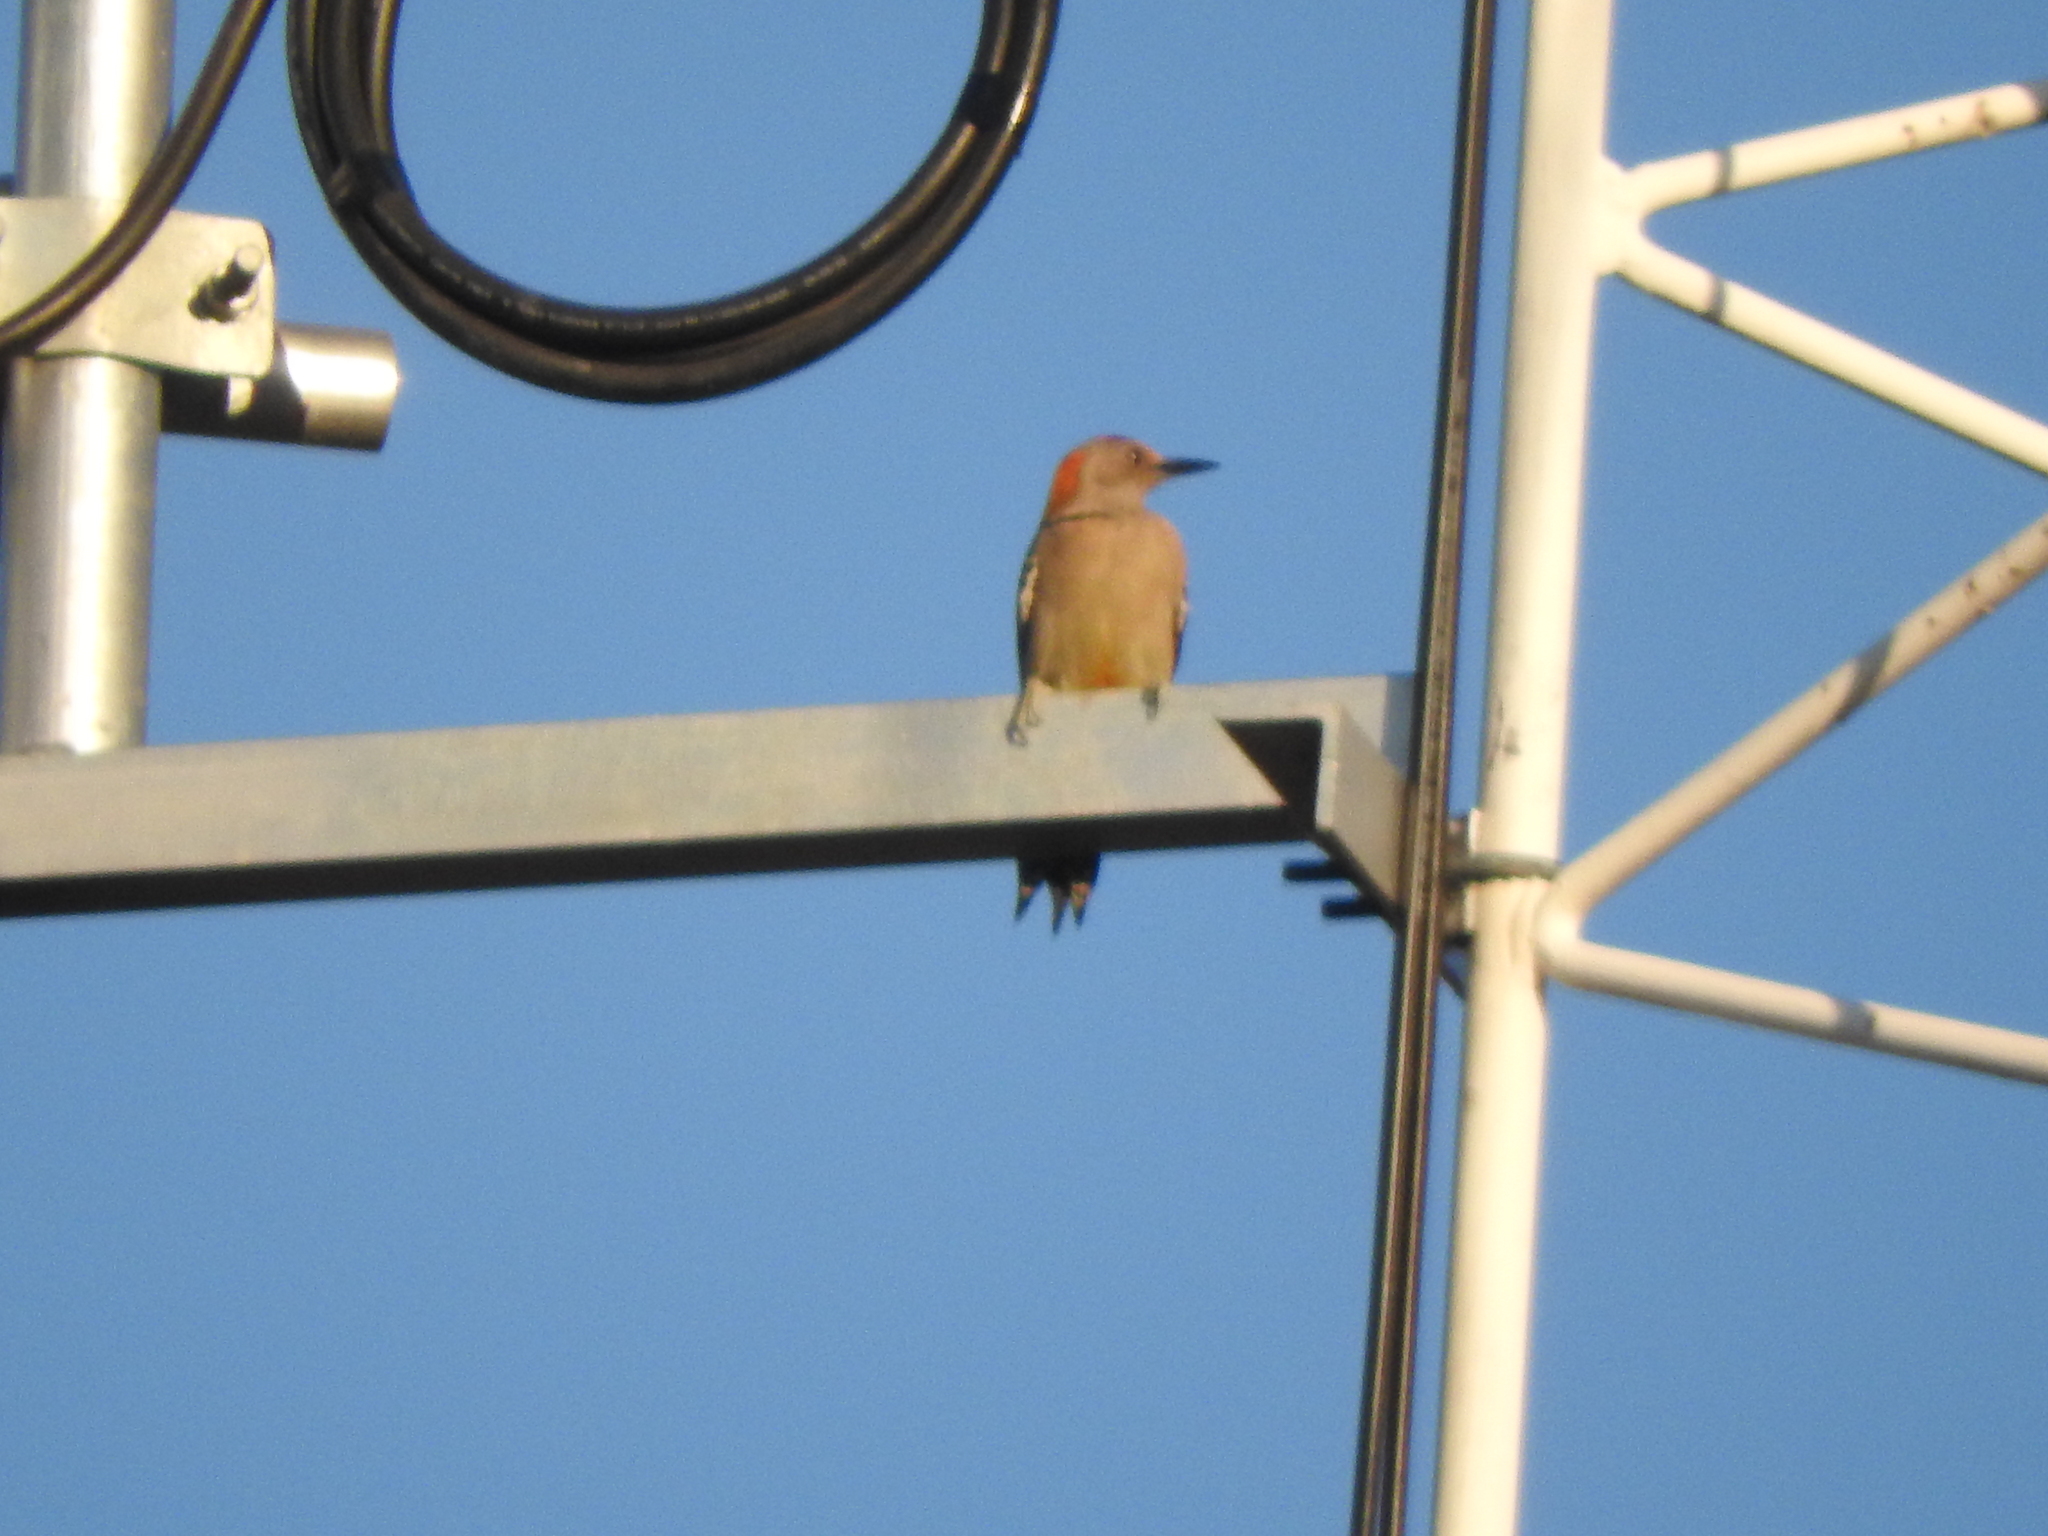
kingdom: Animalia
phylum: Chordata
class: Aves
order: Piciformes
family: Picidae
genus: Melanerpes
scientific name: Melanerpes aurifrons
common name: Golden-fronted woodpecker
